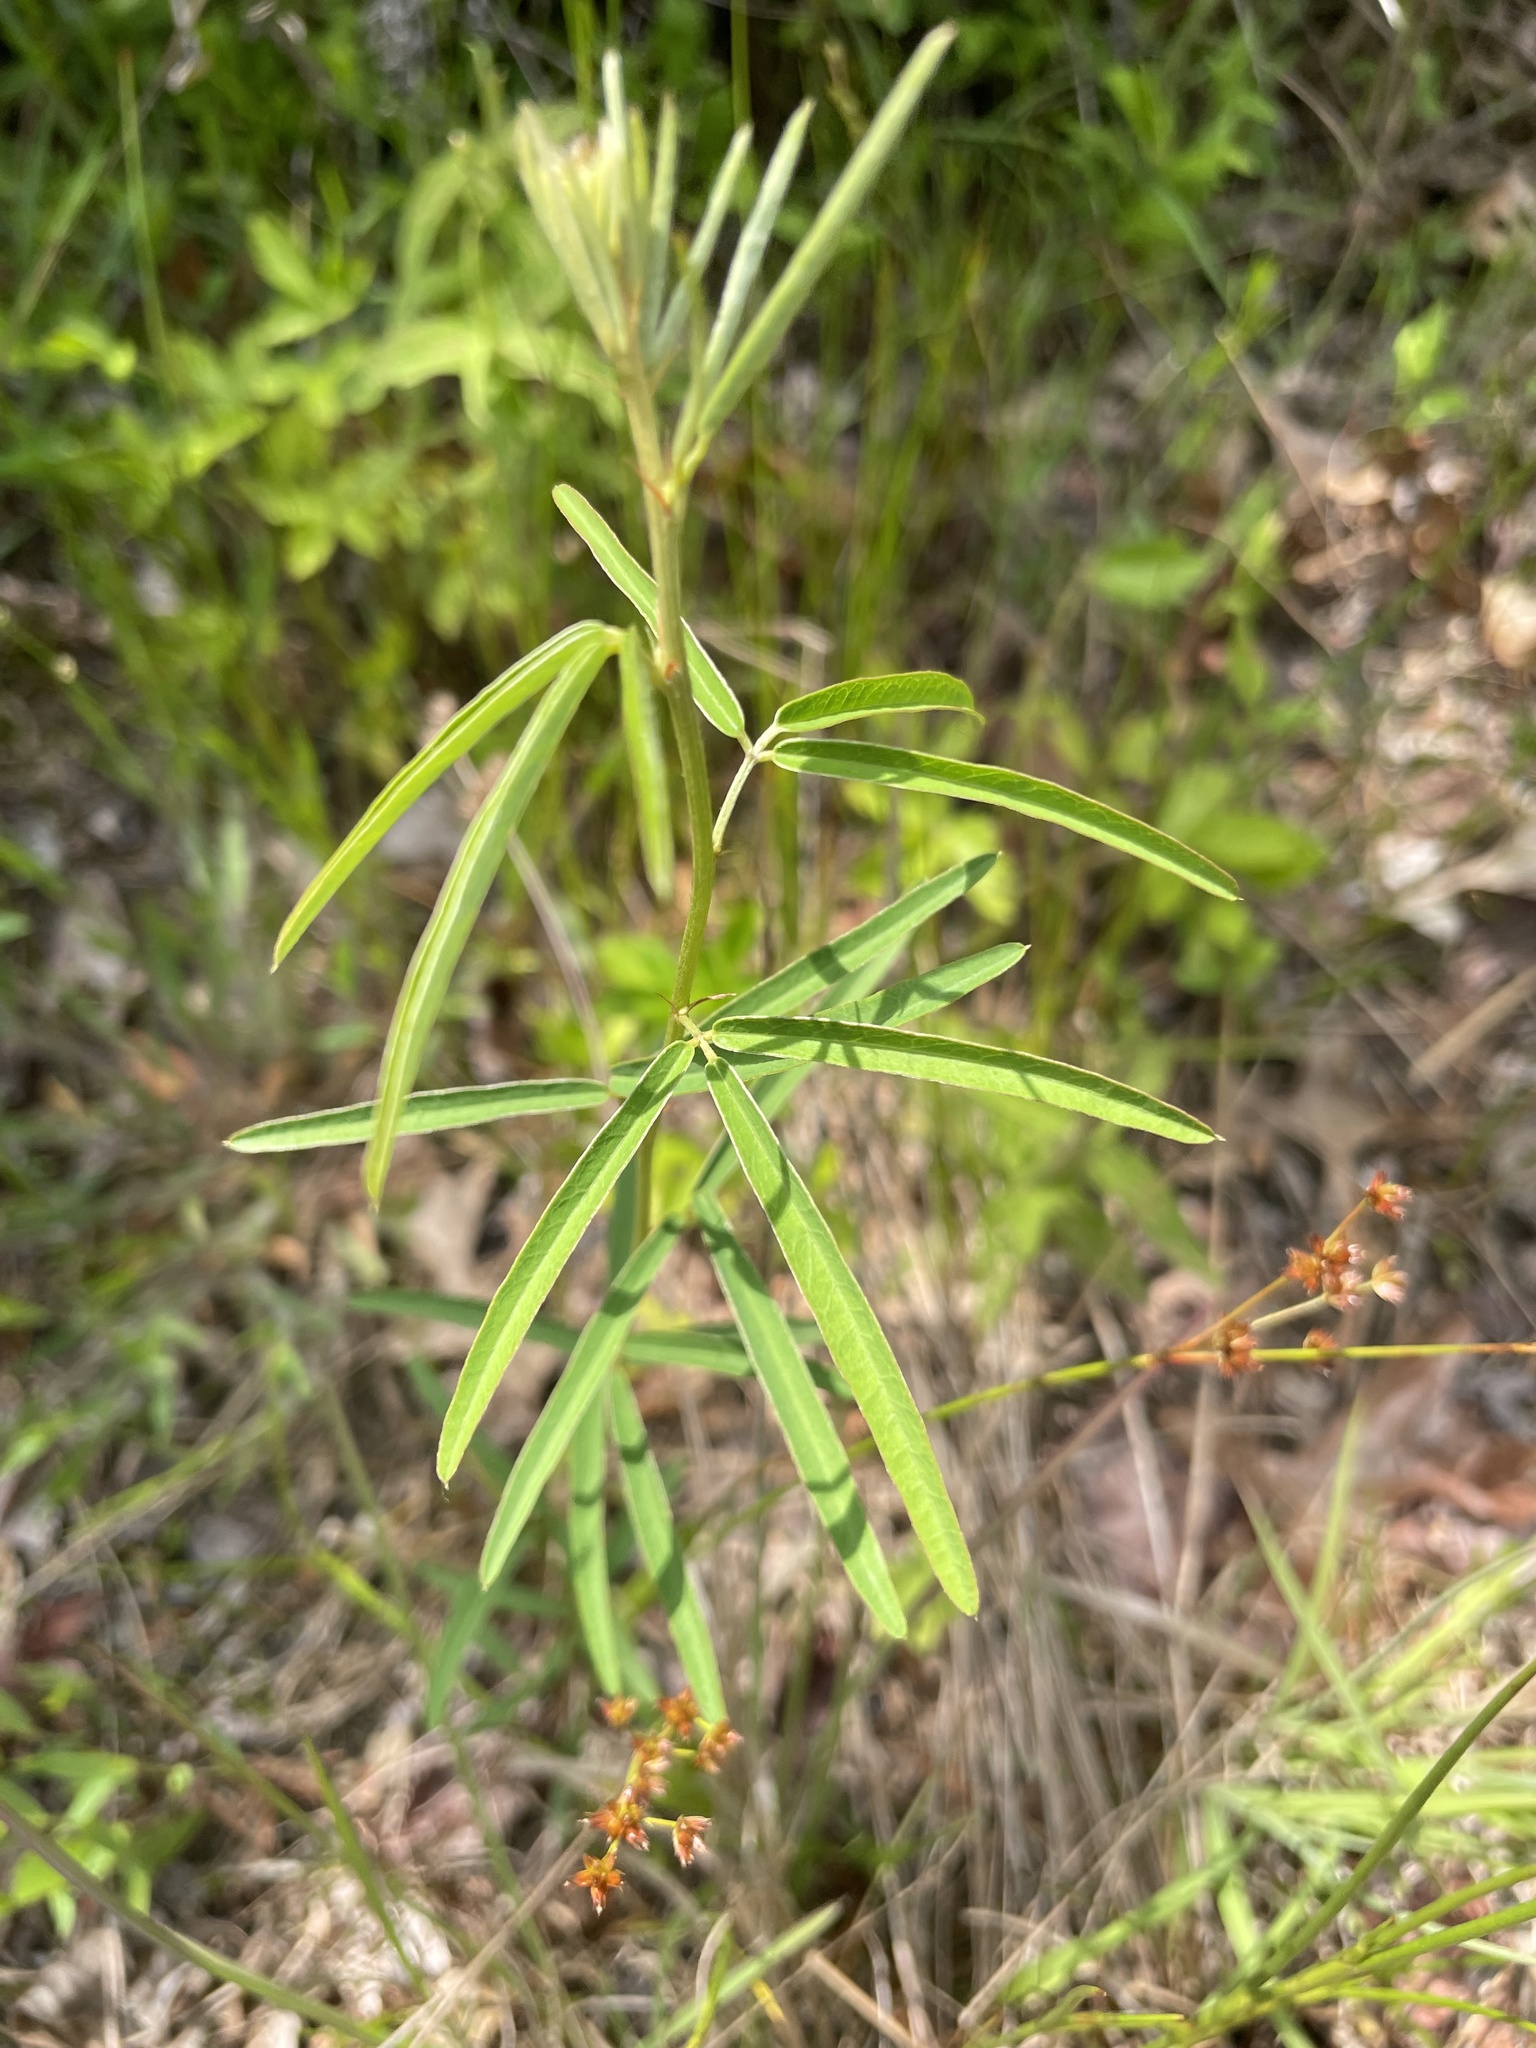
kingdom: Plantae
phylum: Tracheophyta
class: Magnoliopsida
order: Fabales
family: Fabaceae
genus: Lespedeza
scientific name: Lespedeza virginica
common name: Slender bush-clover
